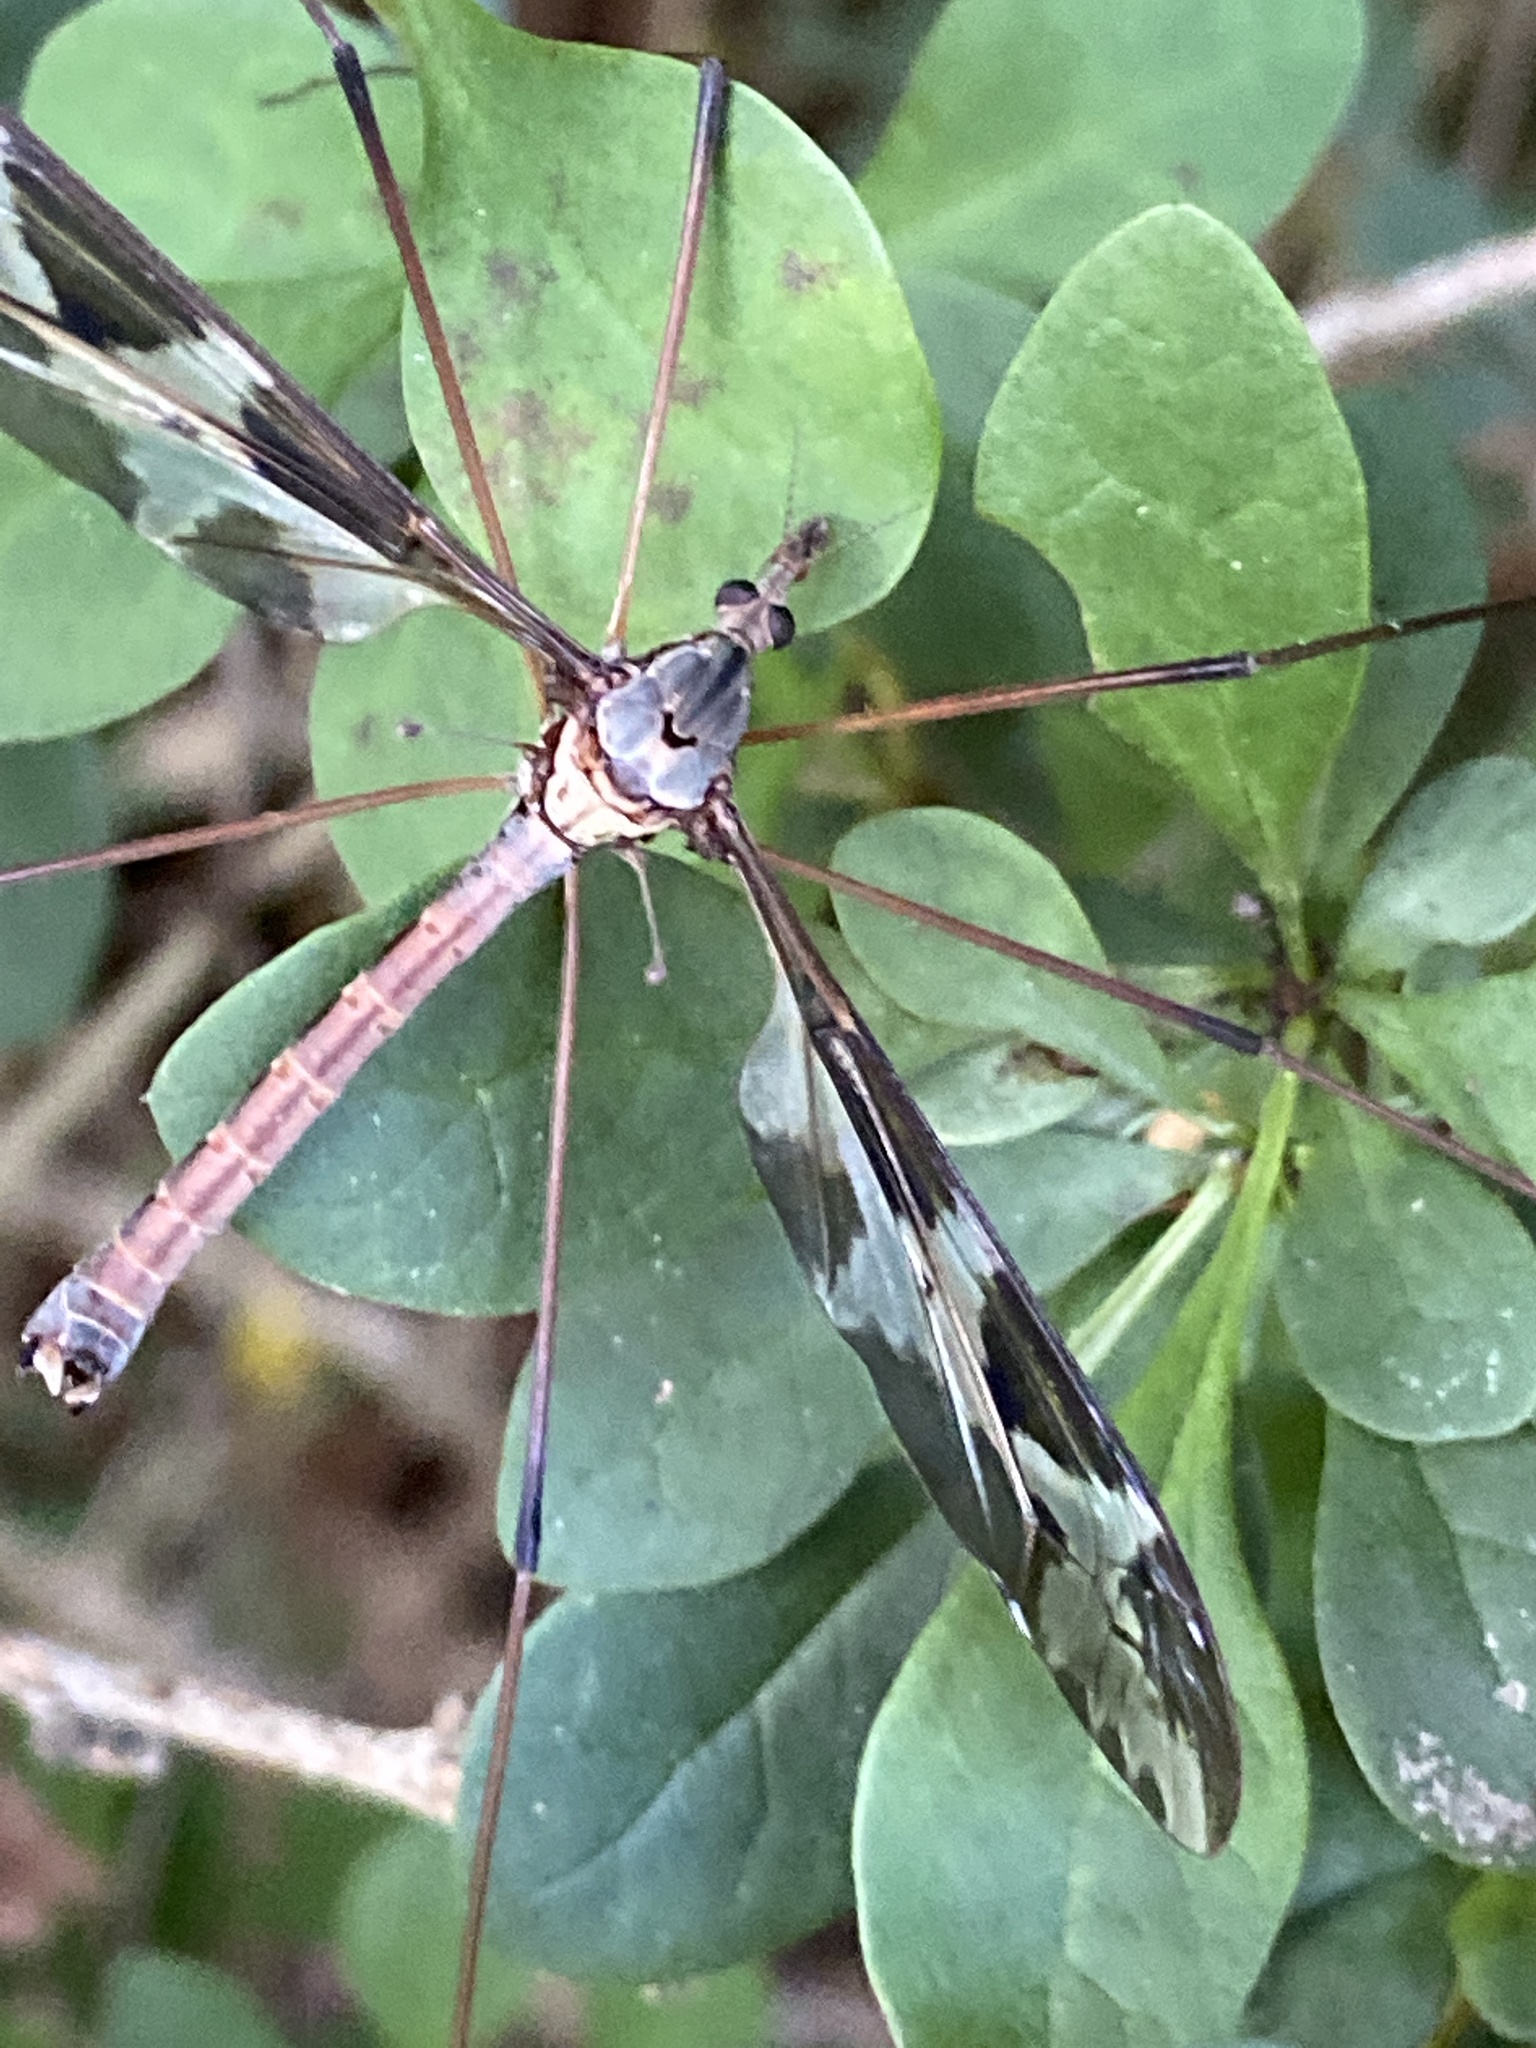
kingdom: Animalia
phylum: Arthropoda
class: Insecta
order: Diptera
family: Tipulidae
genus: Tipula
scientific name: Tipula maxima
